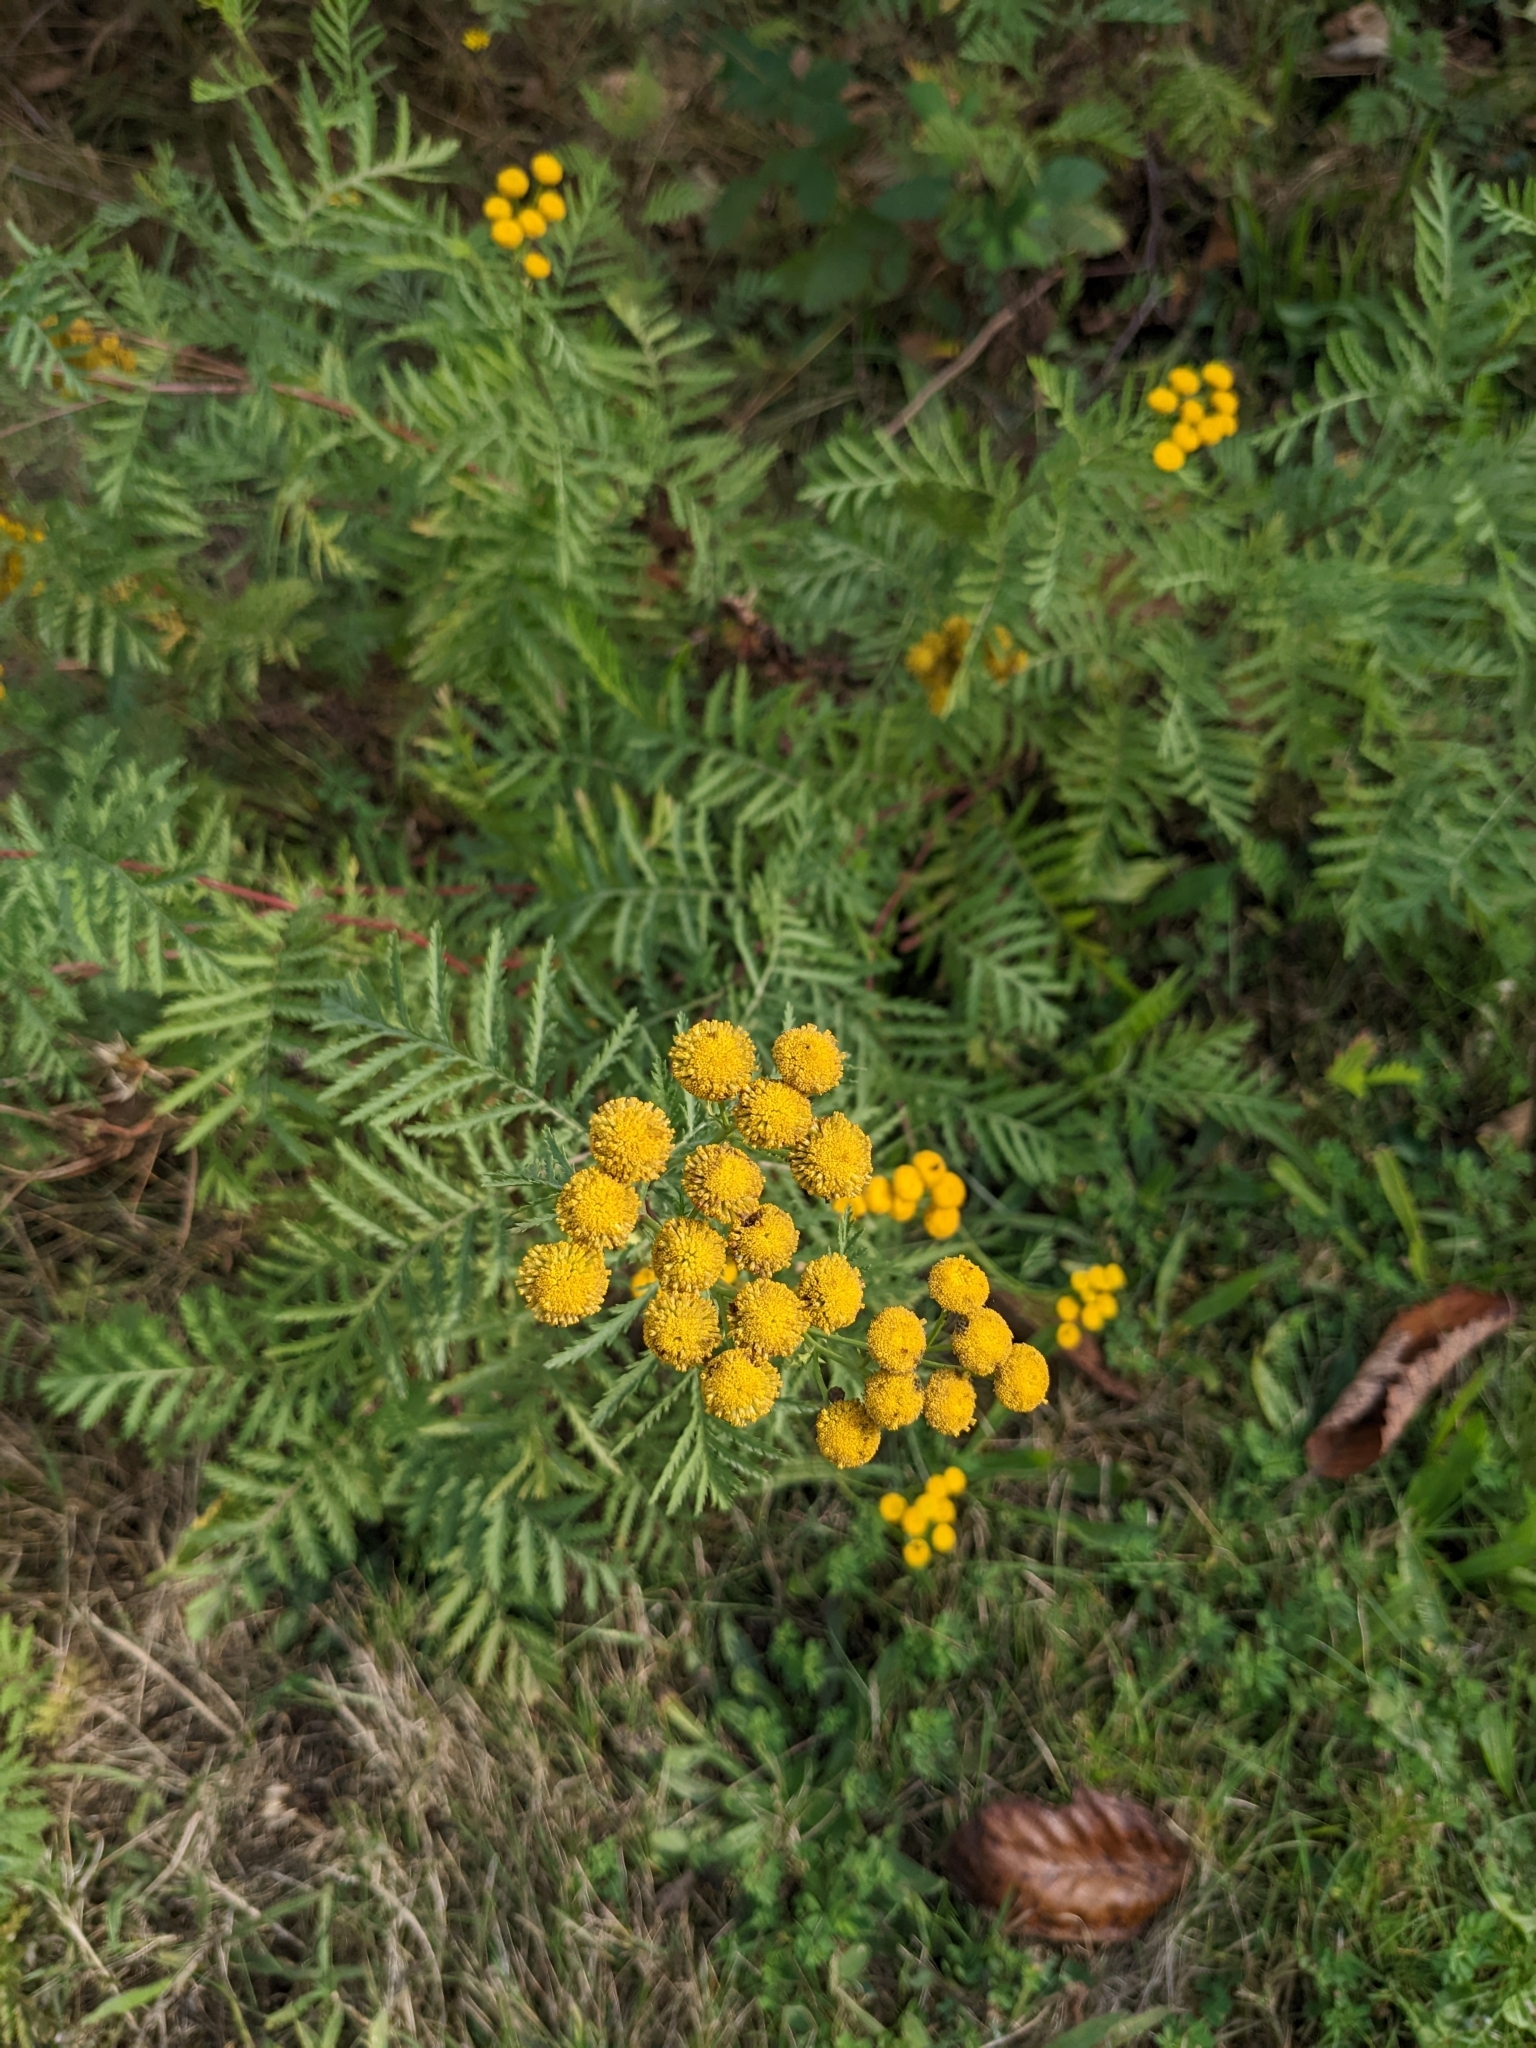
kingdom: Plantae
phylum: Tracheophyta
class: Magnoliopsida
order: Asterales
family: Asteraceae
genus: Tanacetum
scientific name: Tanacetum vulgare
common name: Common tansy
